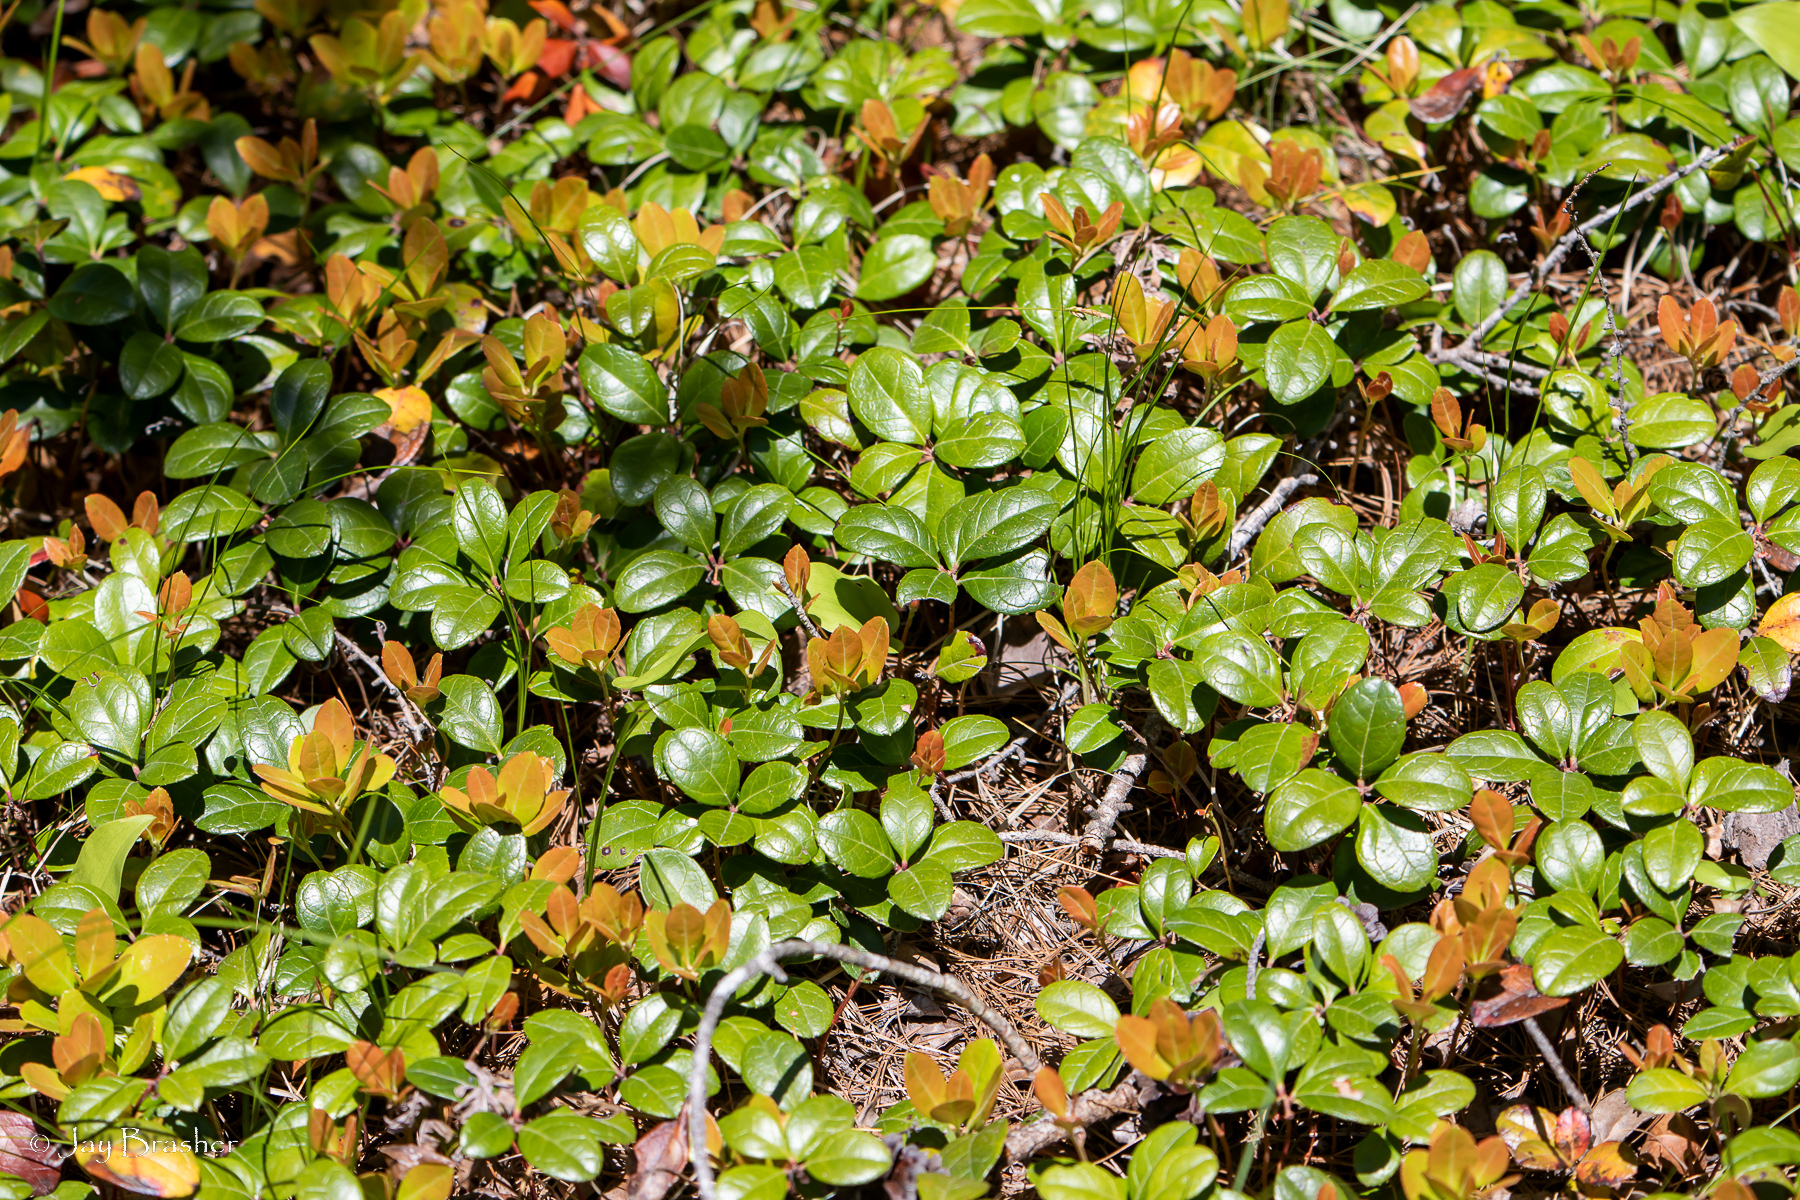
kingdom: Plantae
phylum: Tracheophyta
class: Magnoliopsida
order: Ericales
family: Ericaceae
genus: Gaultheria
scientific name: Gaultheria procumbens
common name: Checkerberry
